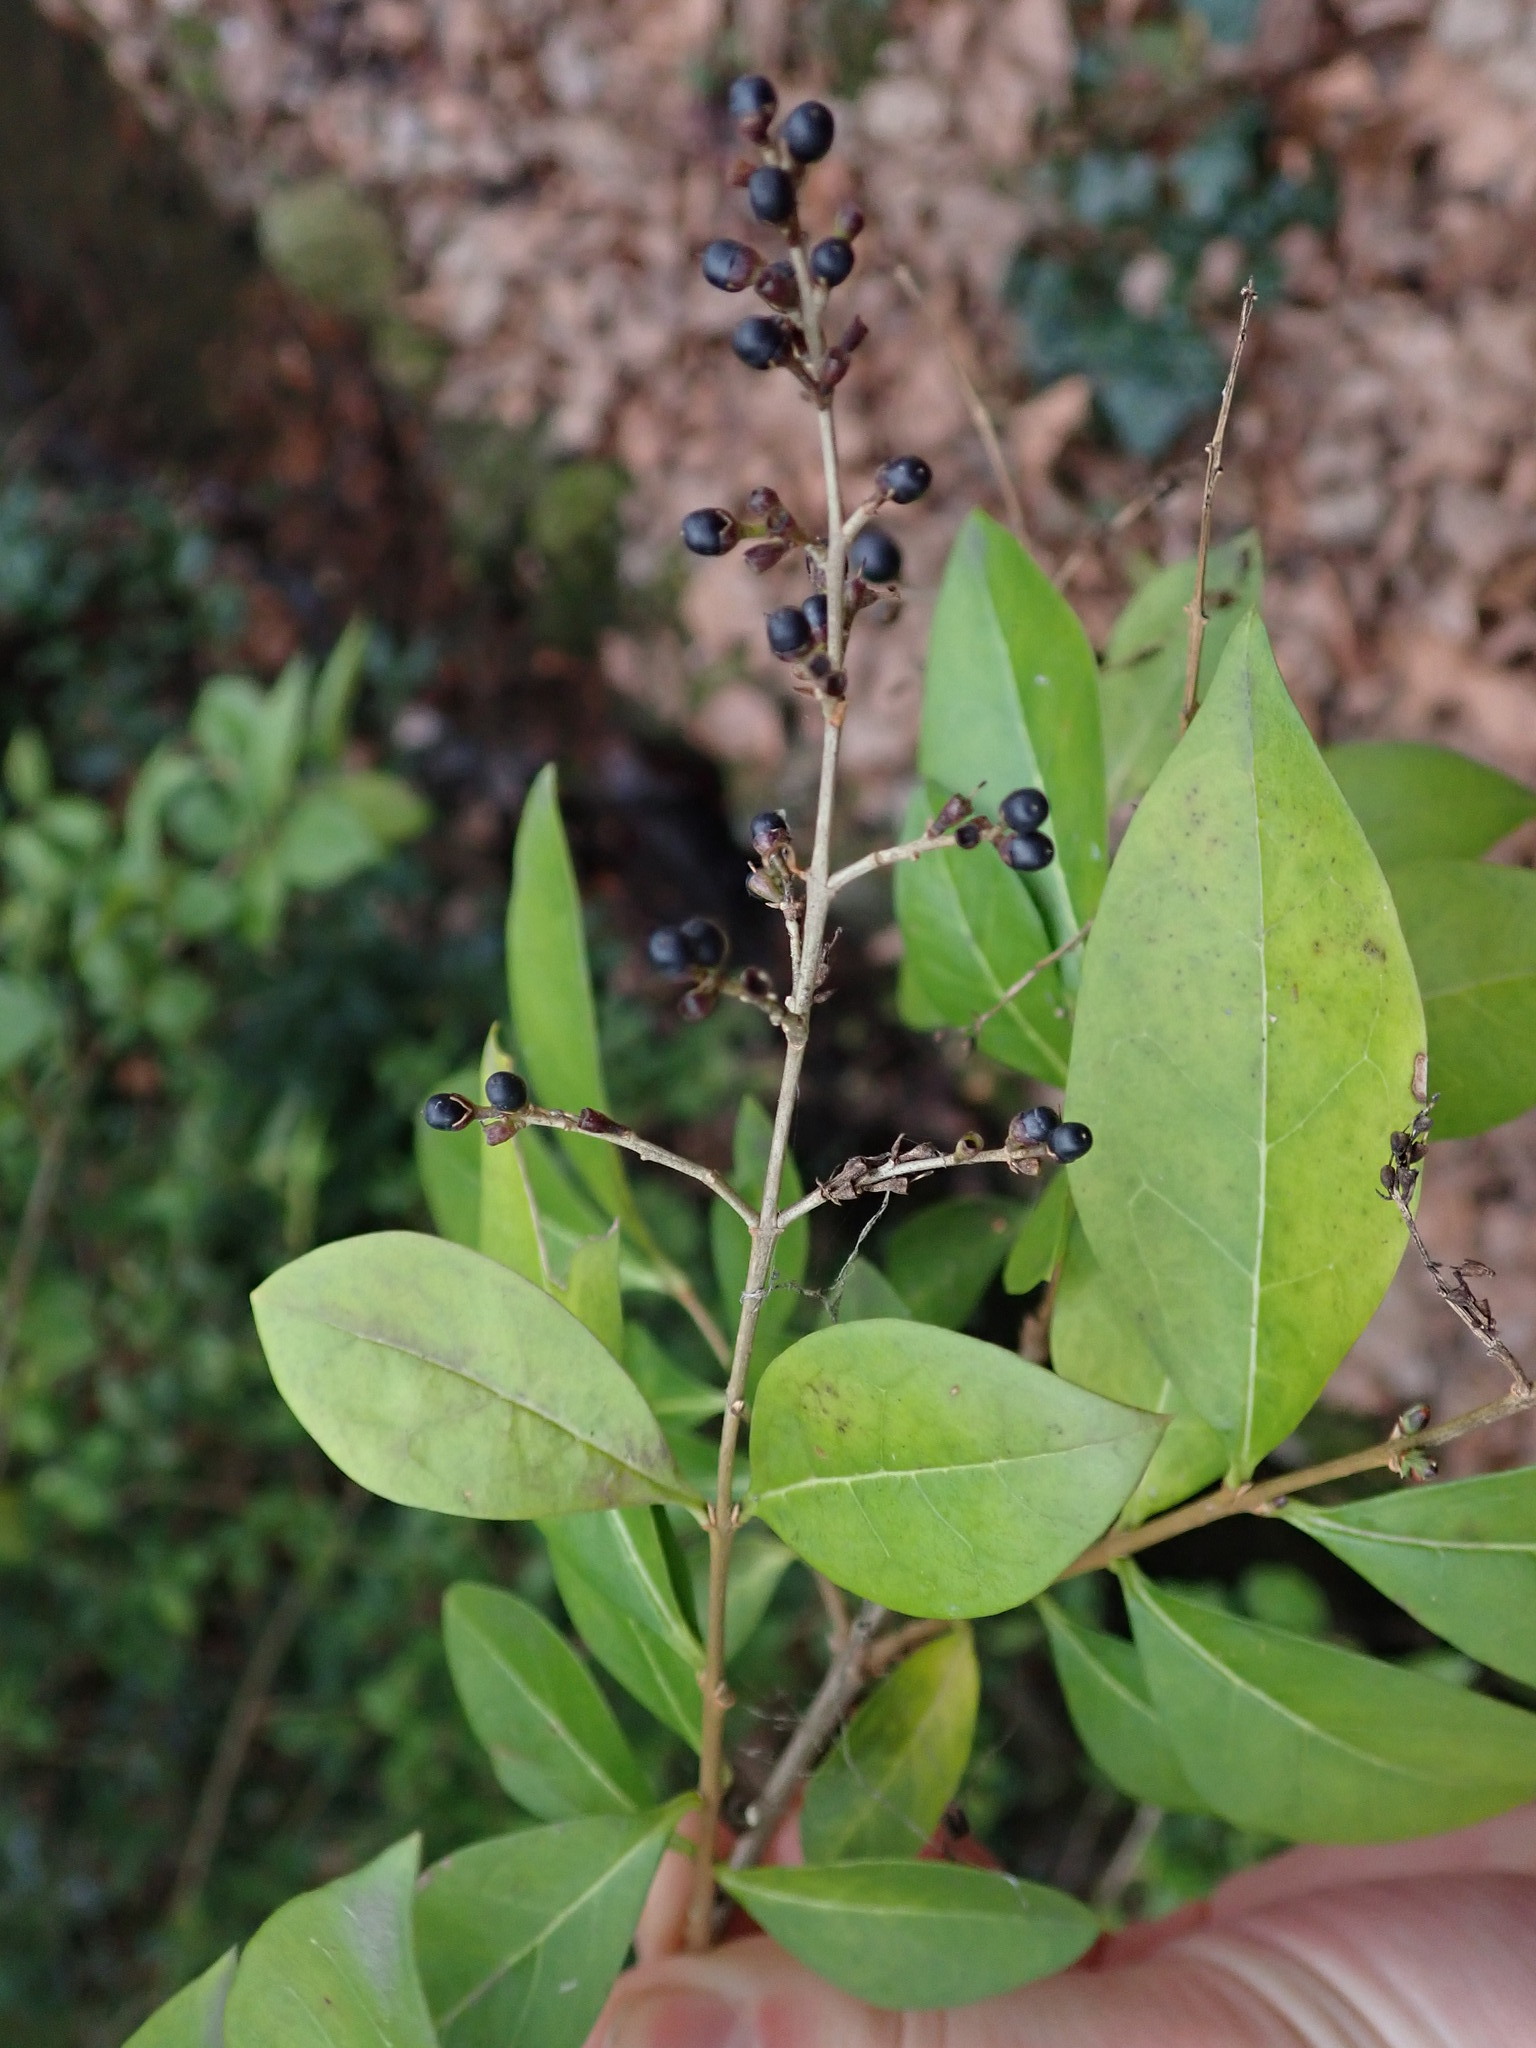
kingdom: Plantae
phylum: Tracheophyta
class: Magnoliopsida
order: Lamiales
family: Oleaceae
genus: Ligustrum
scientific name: Ligustrum ovalifolium
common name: California privet
